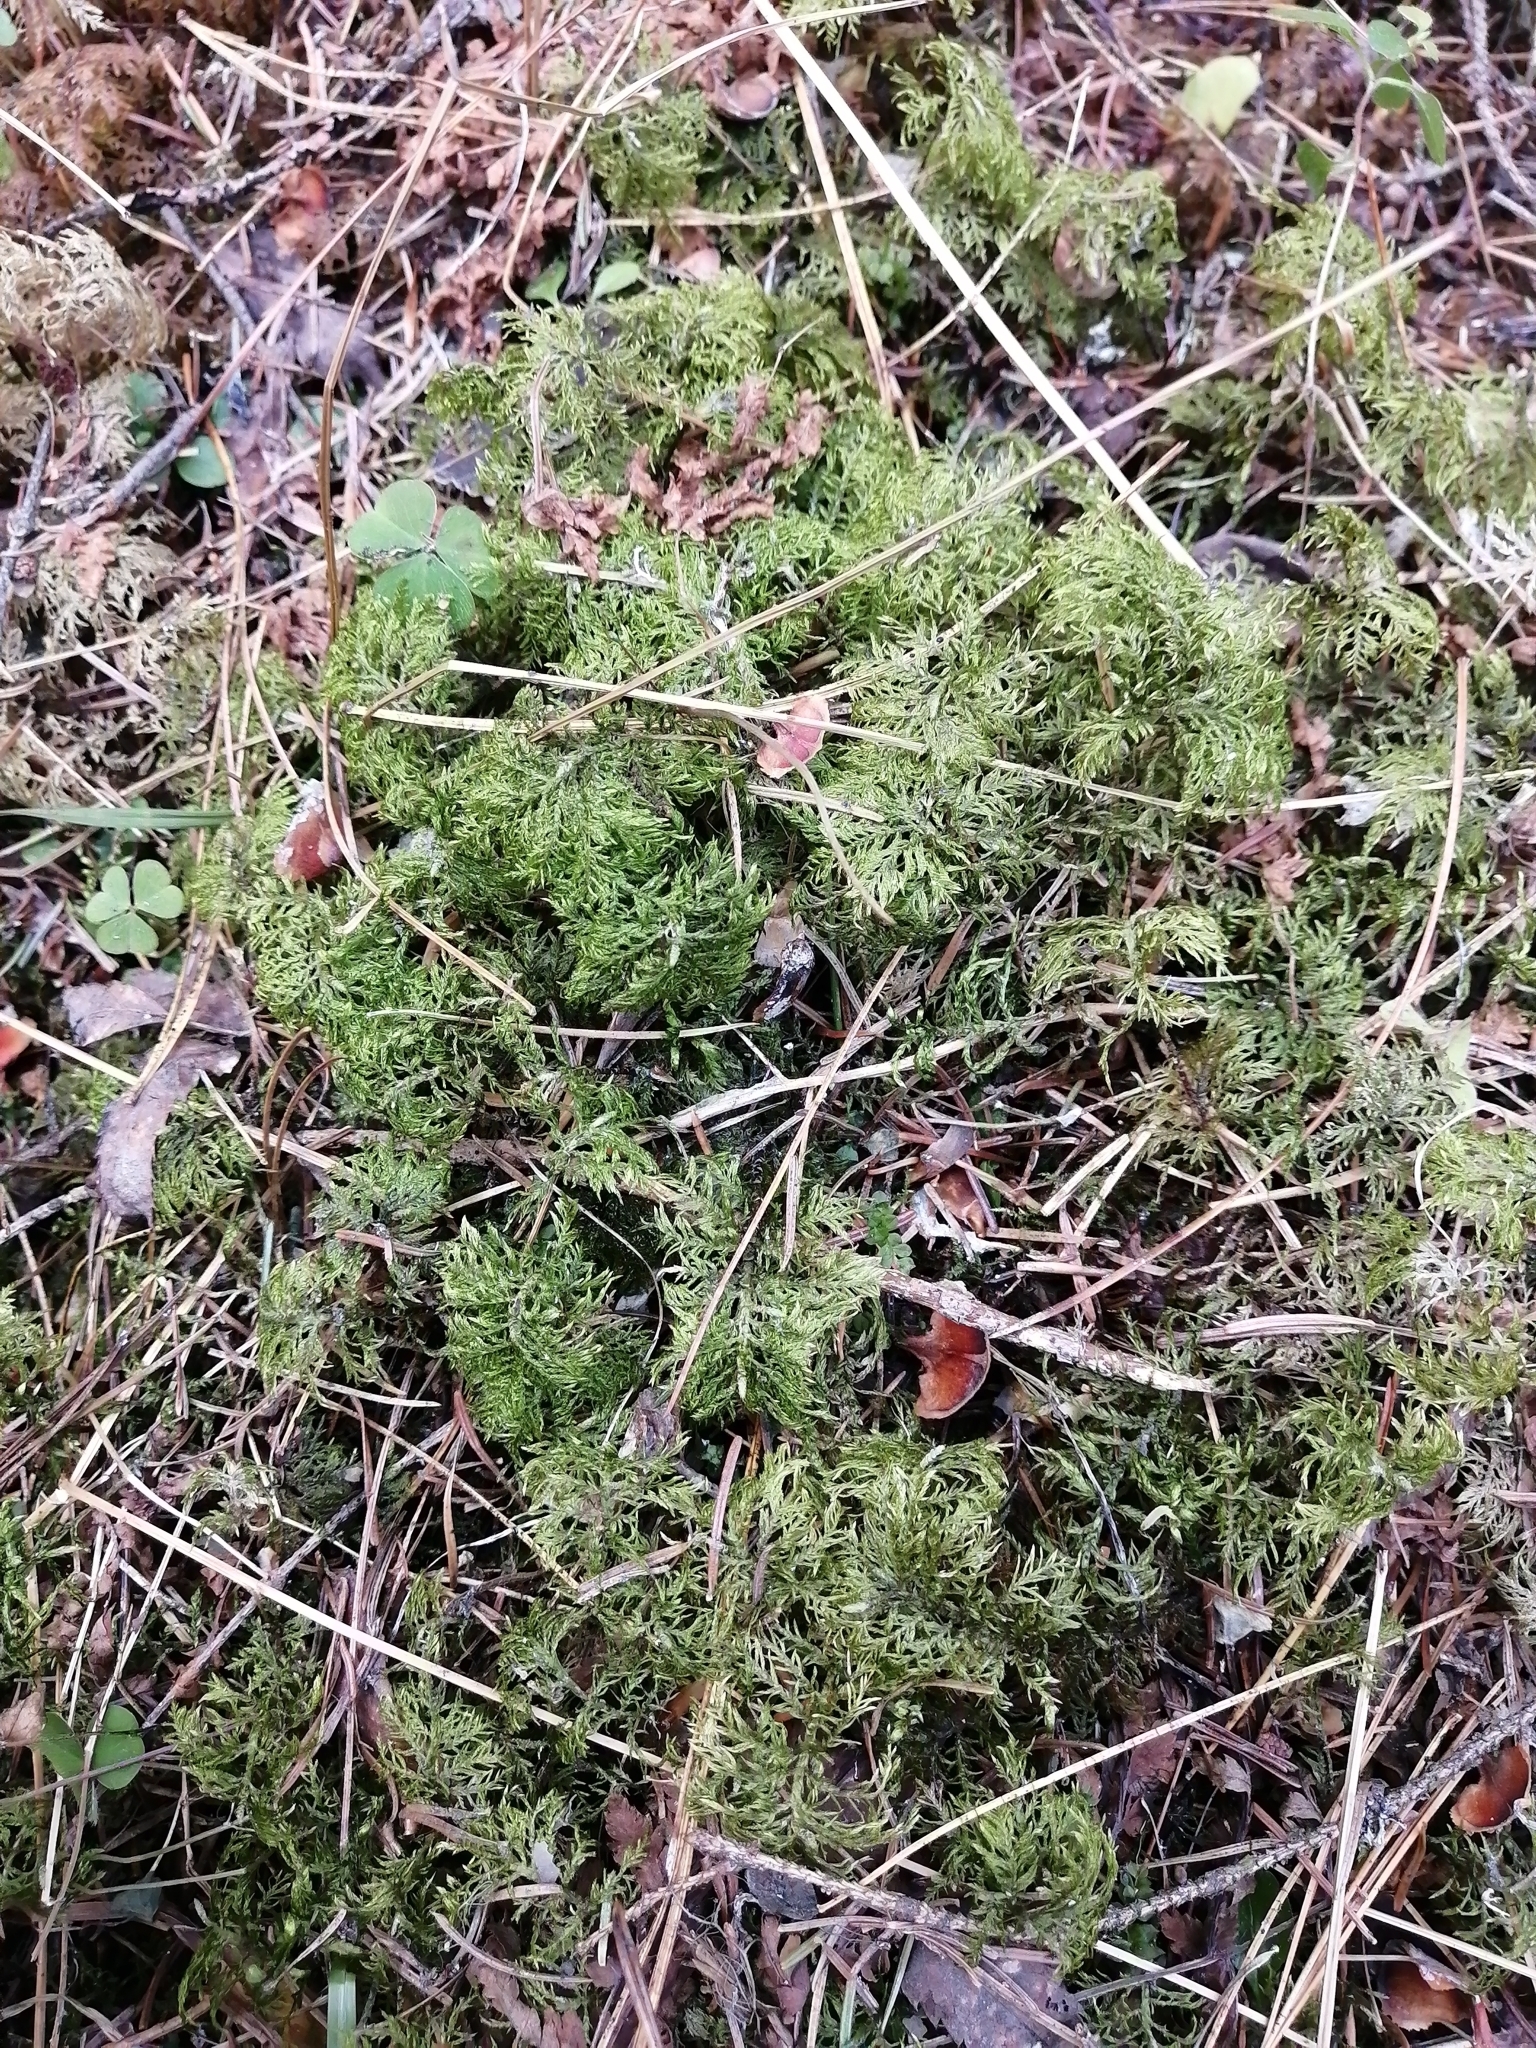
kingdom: Plantae
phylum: Bryophyta
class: Bryopsida
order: Hypnales
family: Hylocomiaceae
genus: Hylocomium
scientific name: Hylocomium splendens
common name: Stairstep moss
